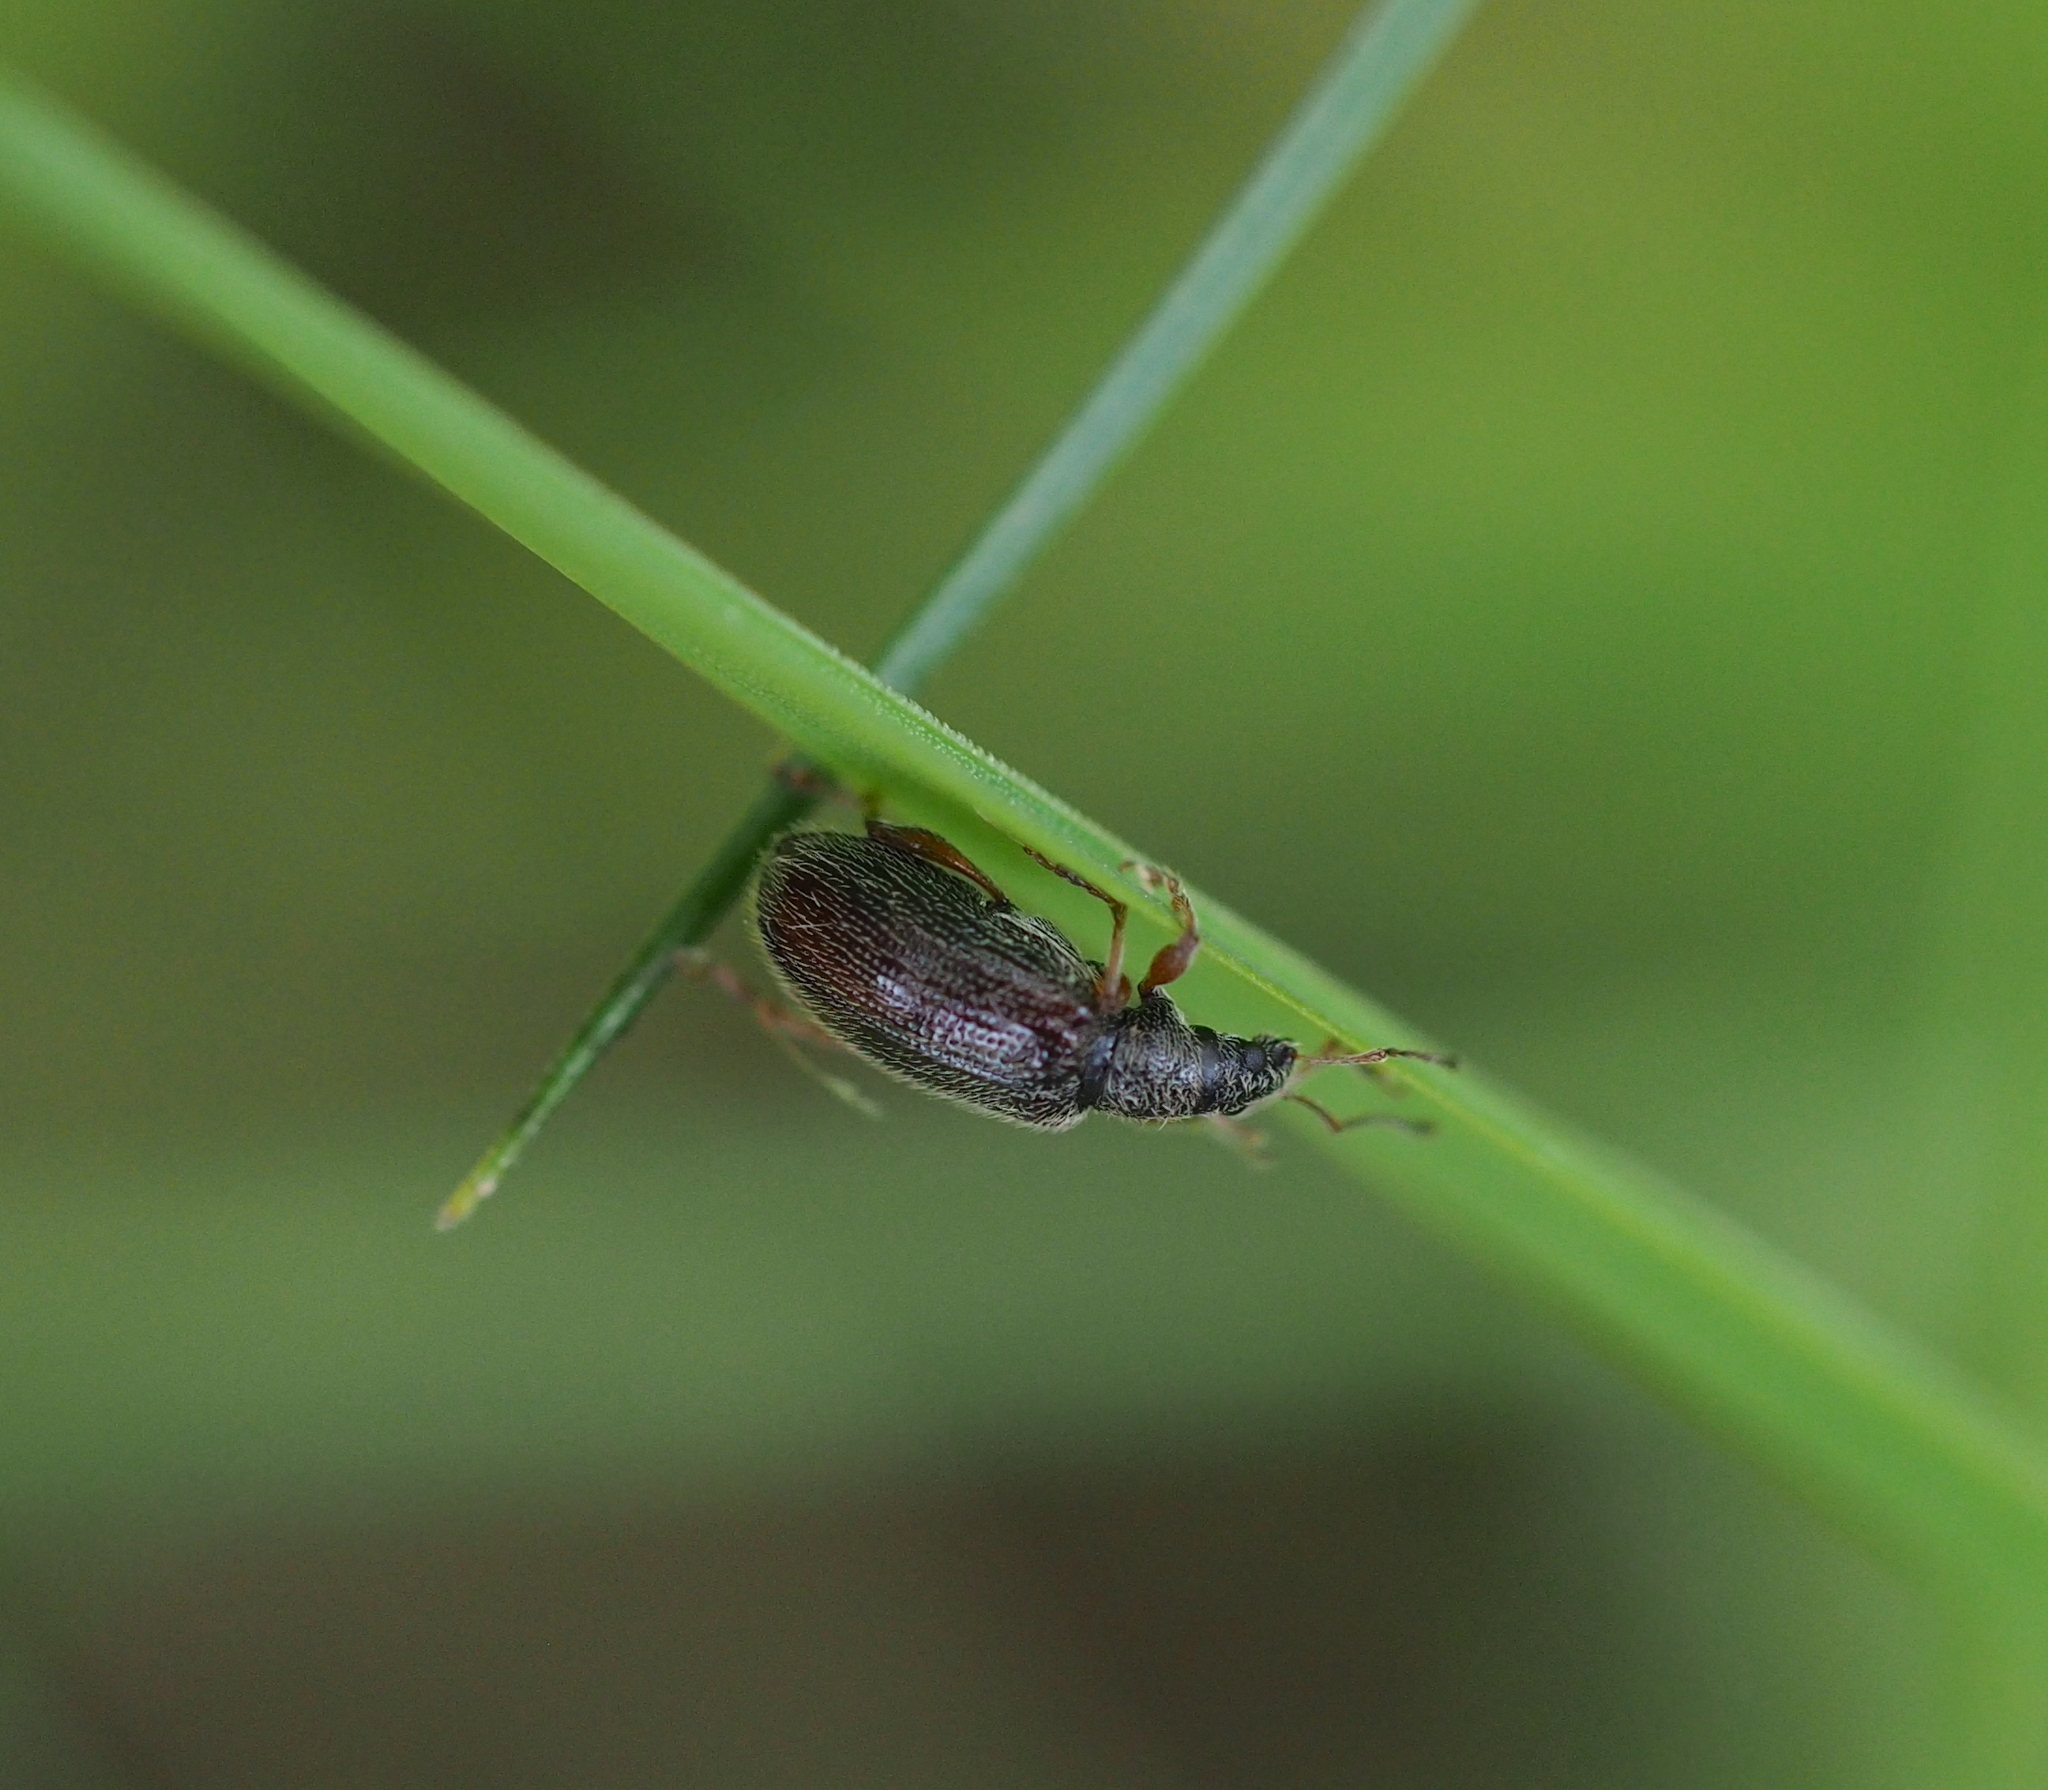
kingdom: Animalia
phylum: Arthropoda
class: Insecta
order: Coleoptera
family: Curculionidae
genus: Phyllobius
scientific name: Phyllobius oblongus
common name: Brown leaf weevil
